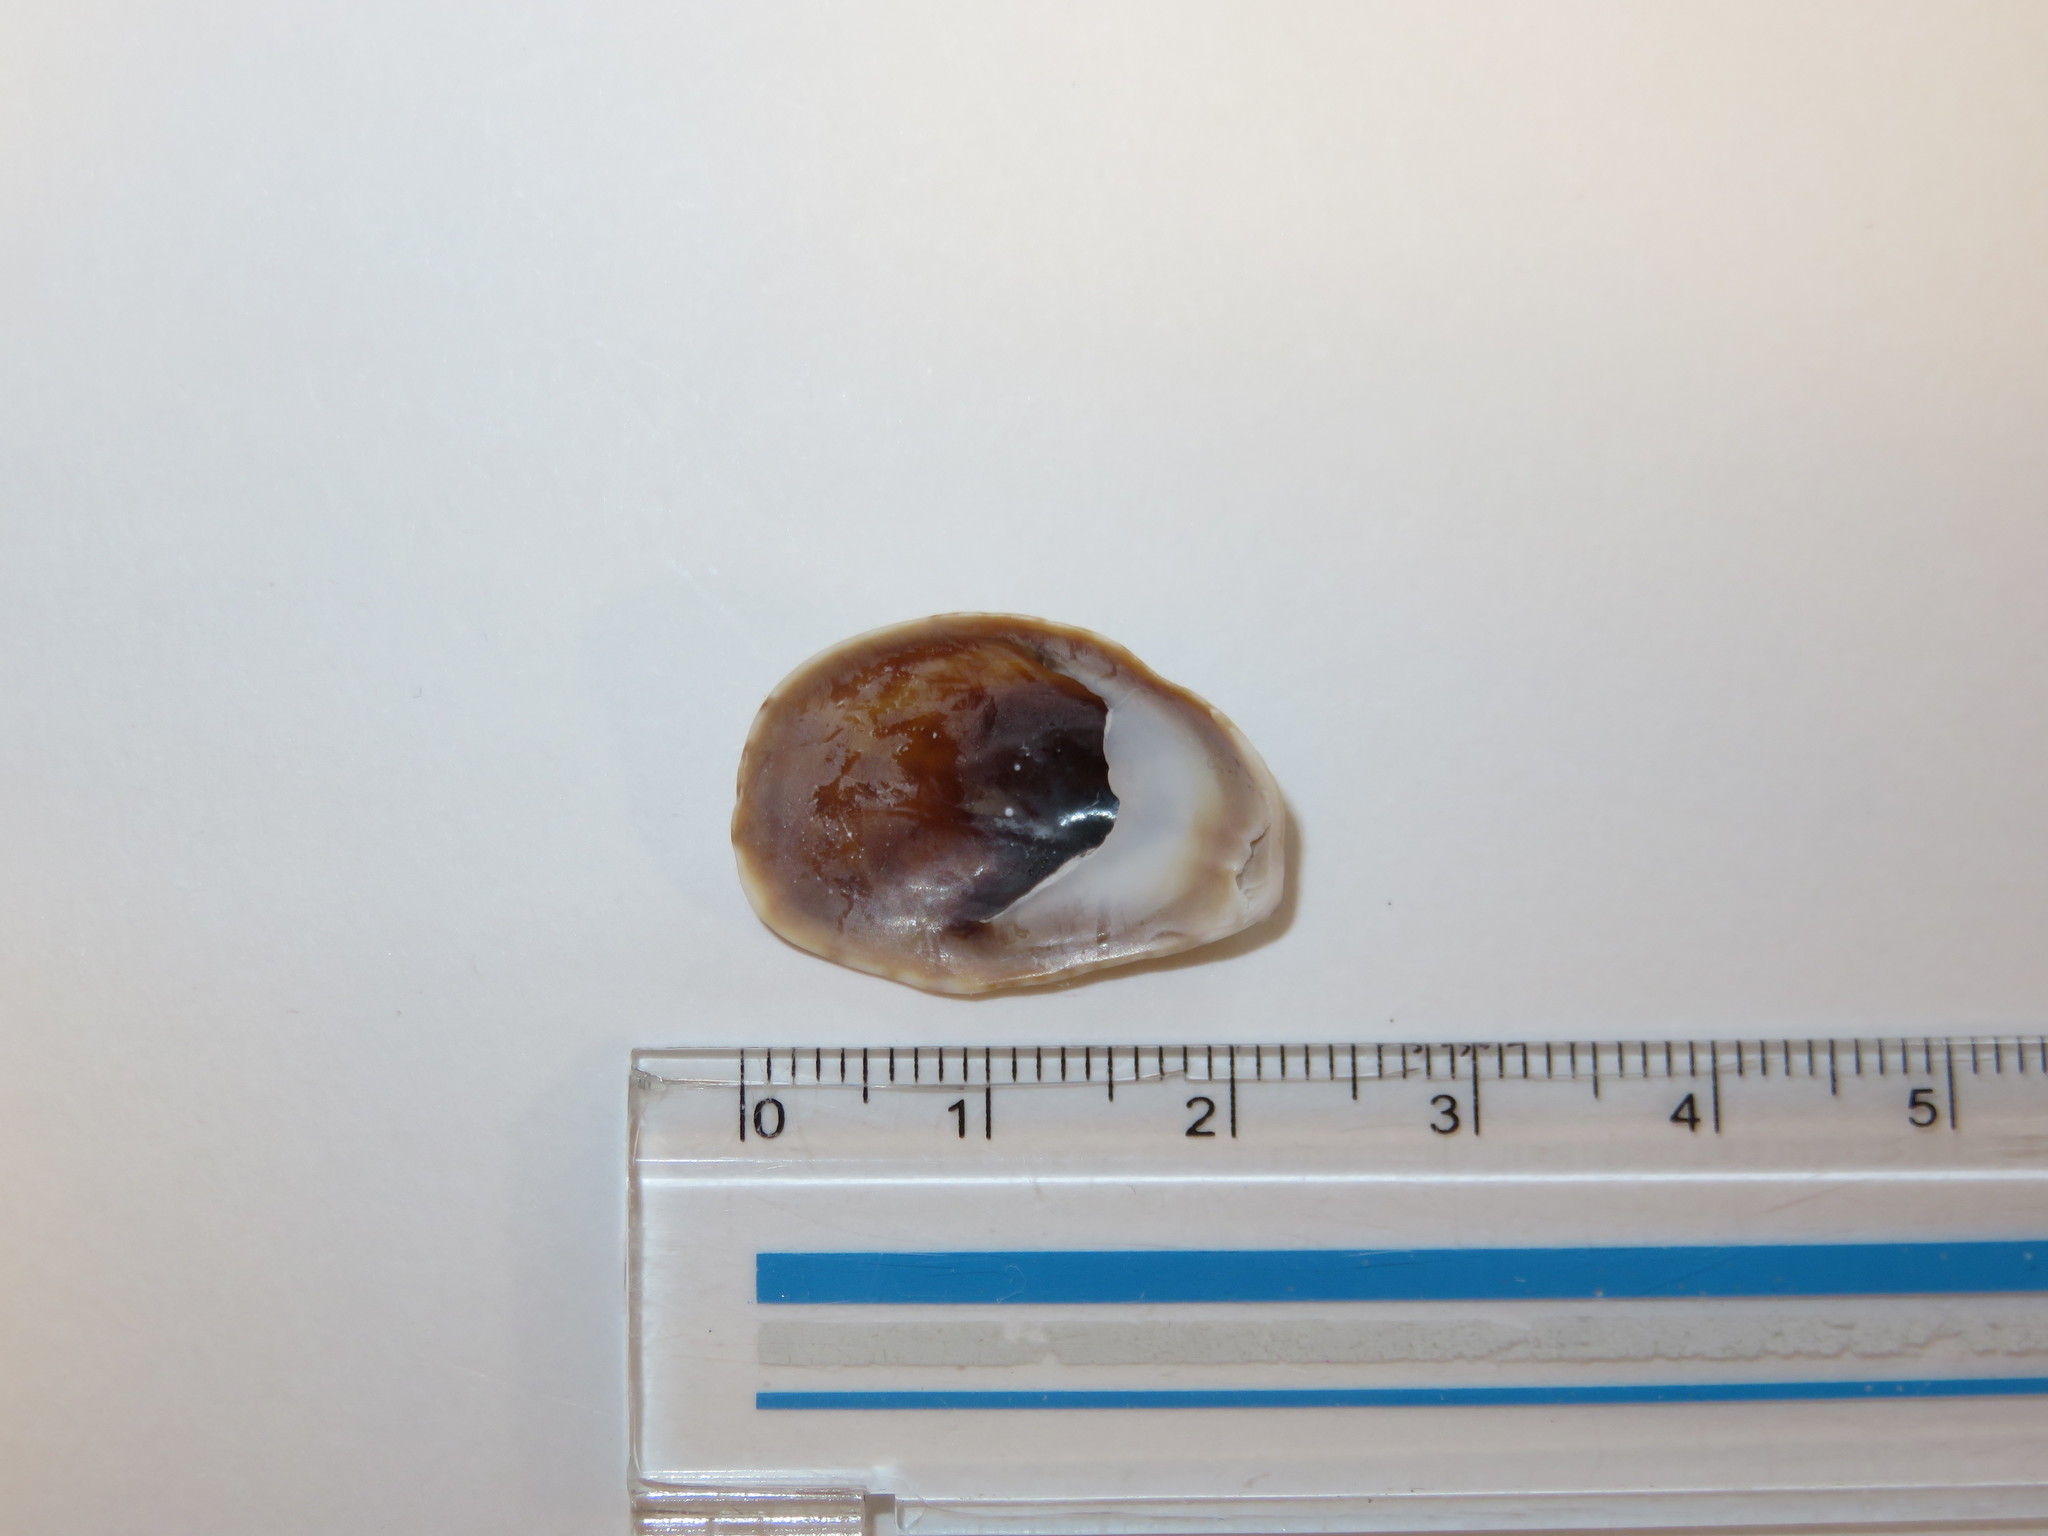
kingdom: Animalia
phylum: Mollusca
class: Gastropoda
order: Littorinimorpha
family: Calyptraeidae
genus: Crepidula
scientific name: Crepidula onyx
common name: Onyx slippersnail
